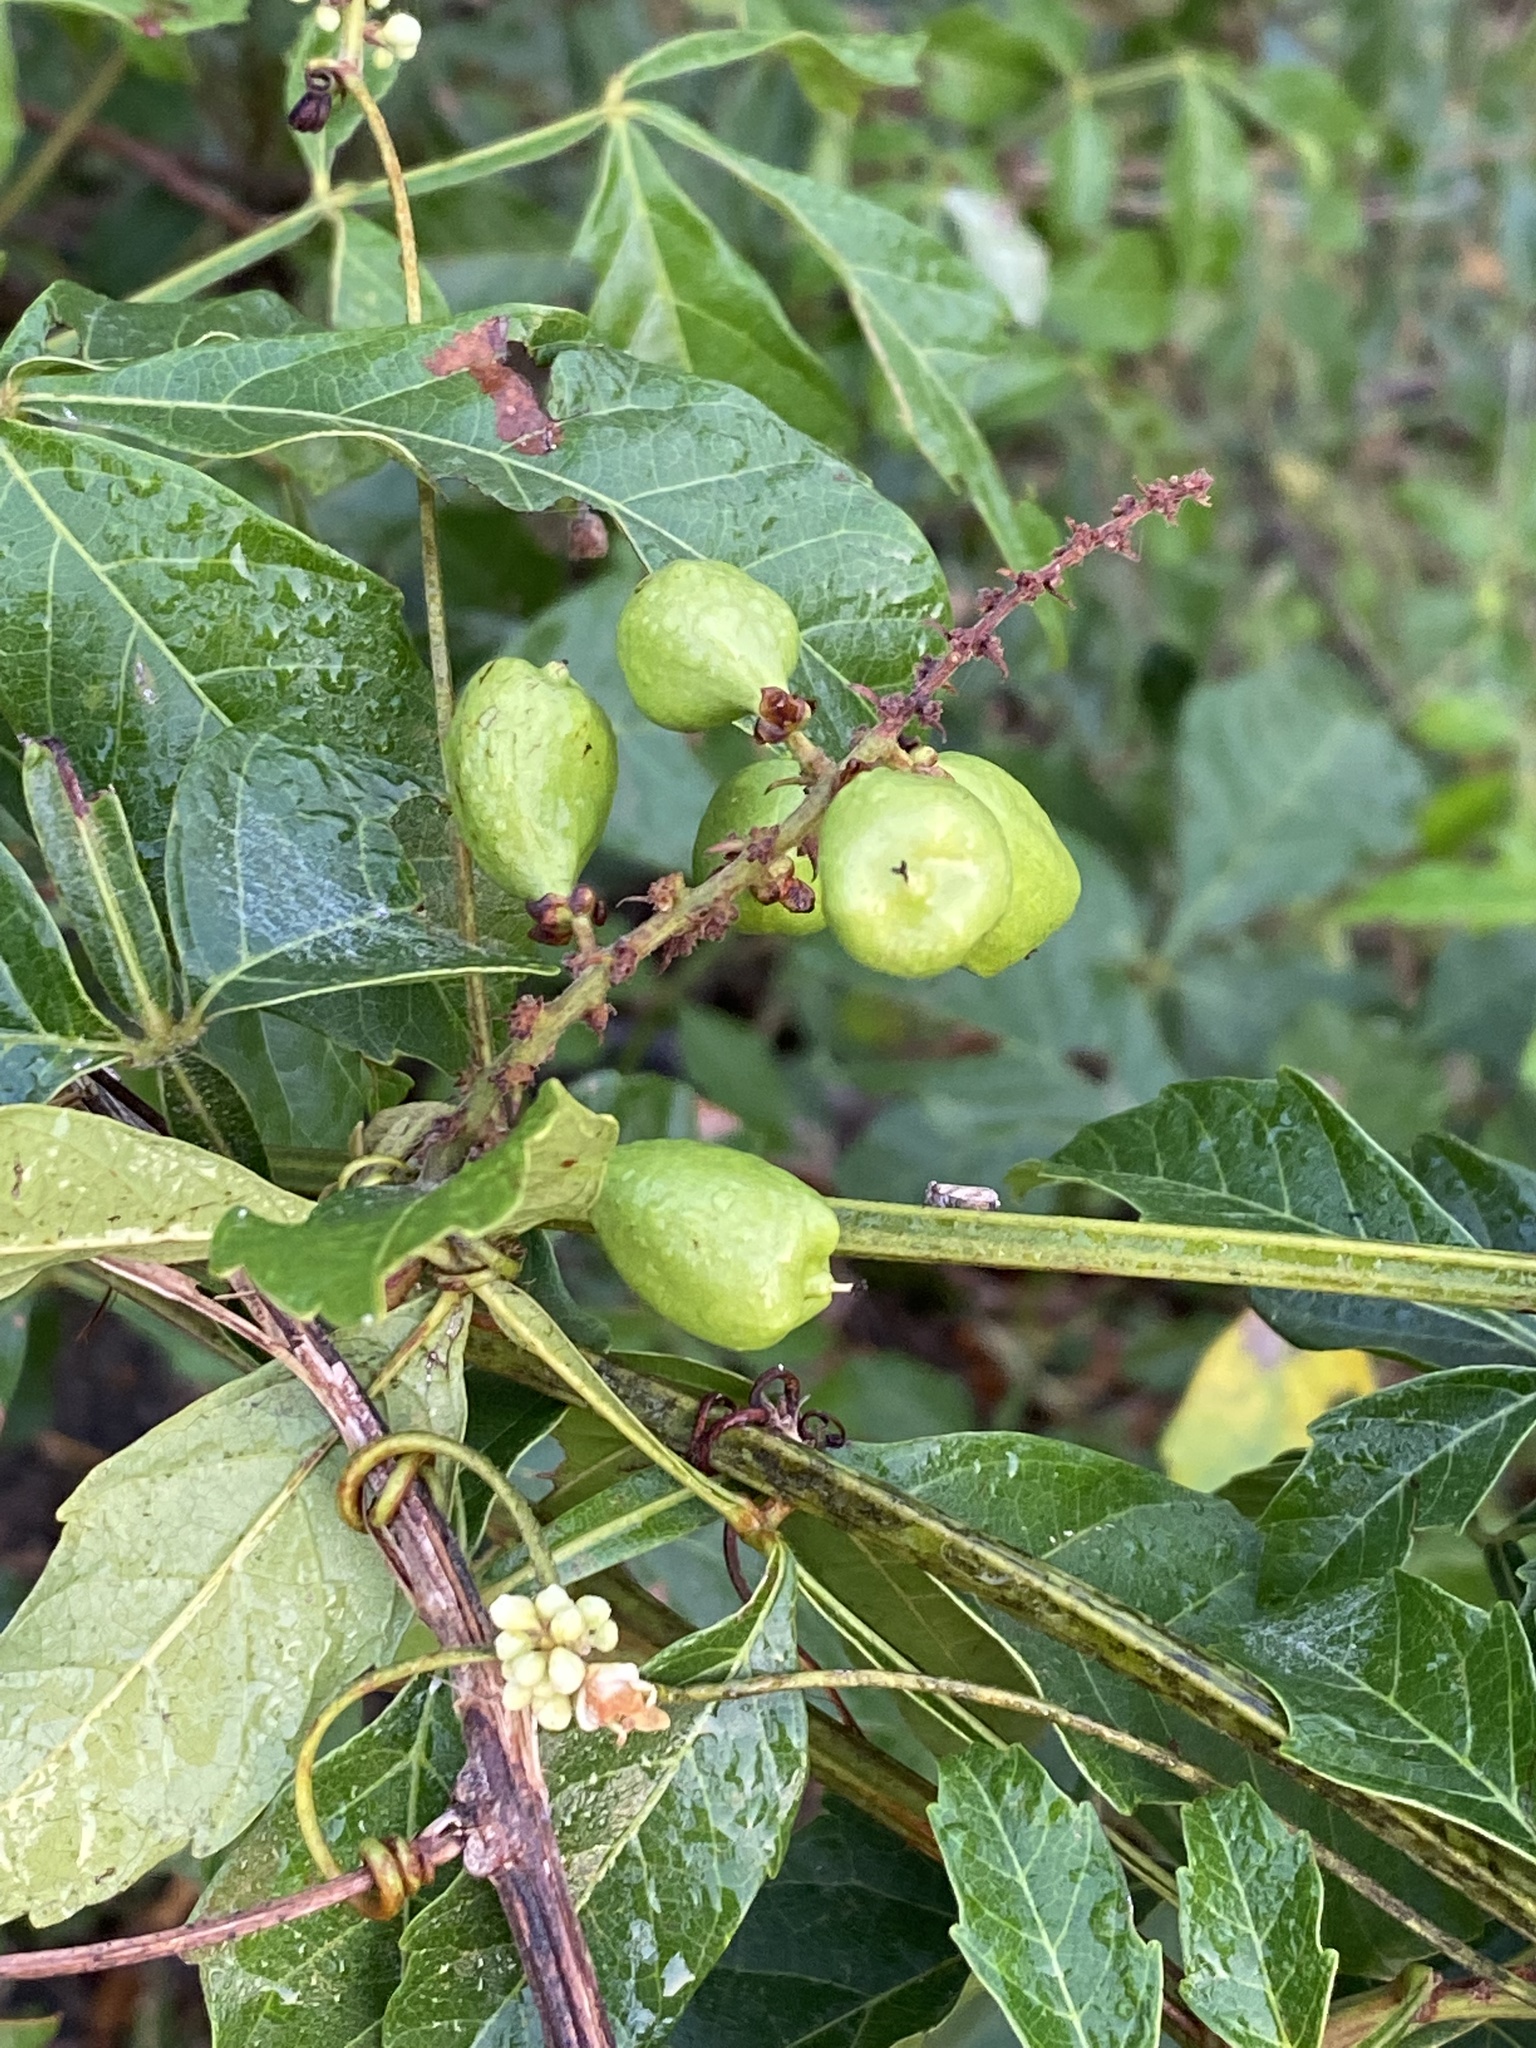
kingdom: Plantae
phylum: Tracheophyta
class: Magnoliopsida
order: Sapindales
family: Sapindaceae
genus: Paullinia
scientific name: Paullinia pinnata
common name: Barbasco
